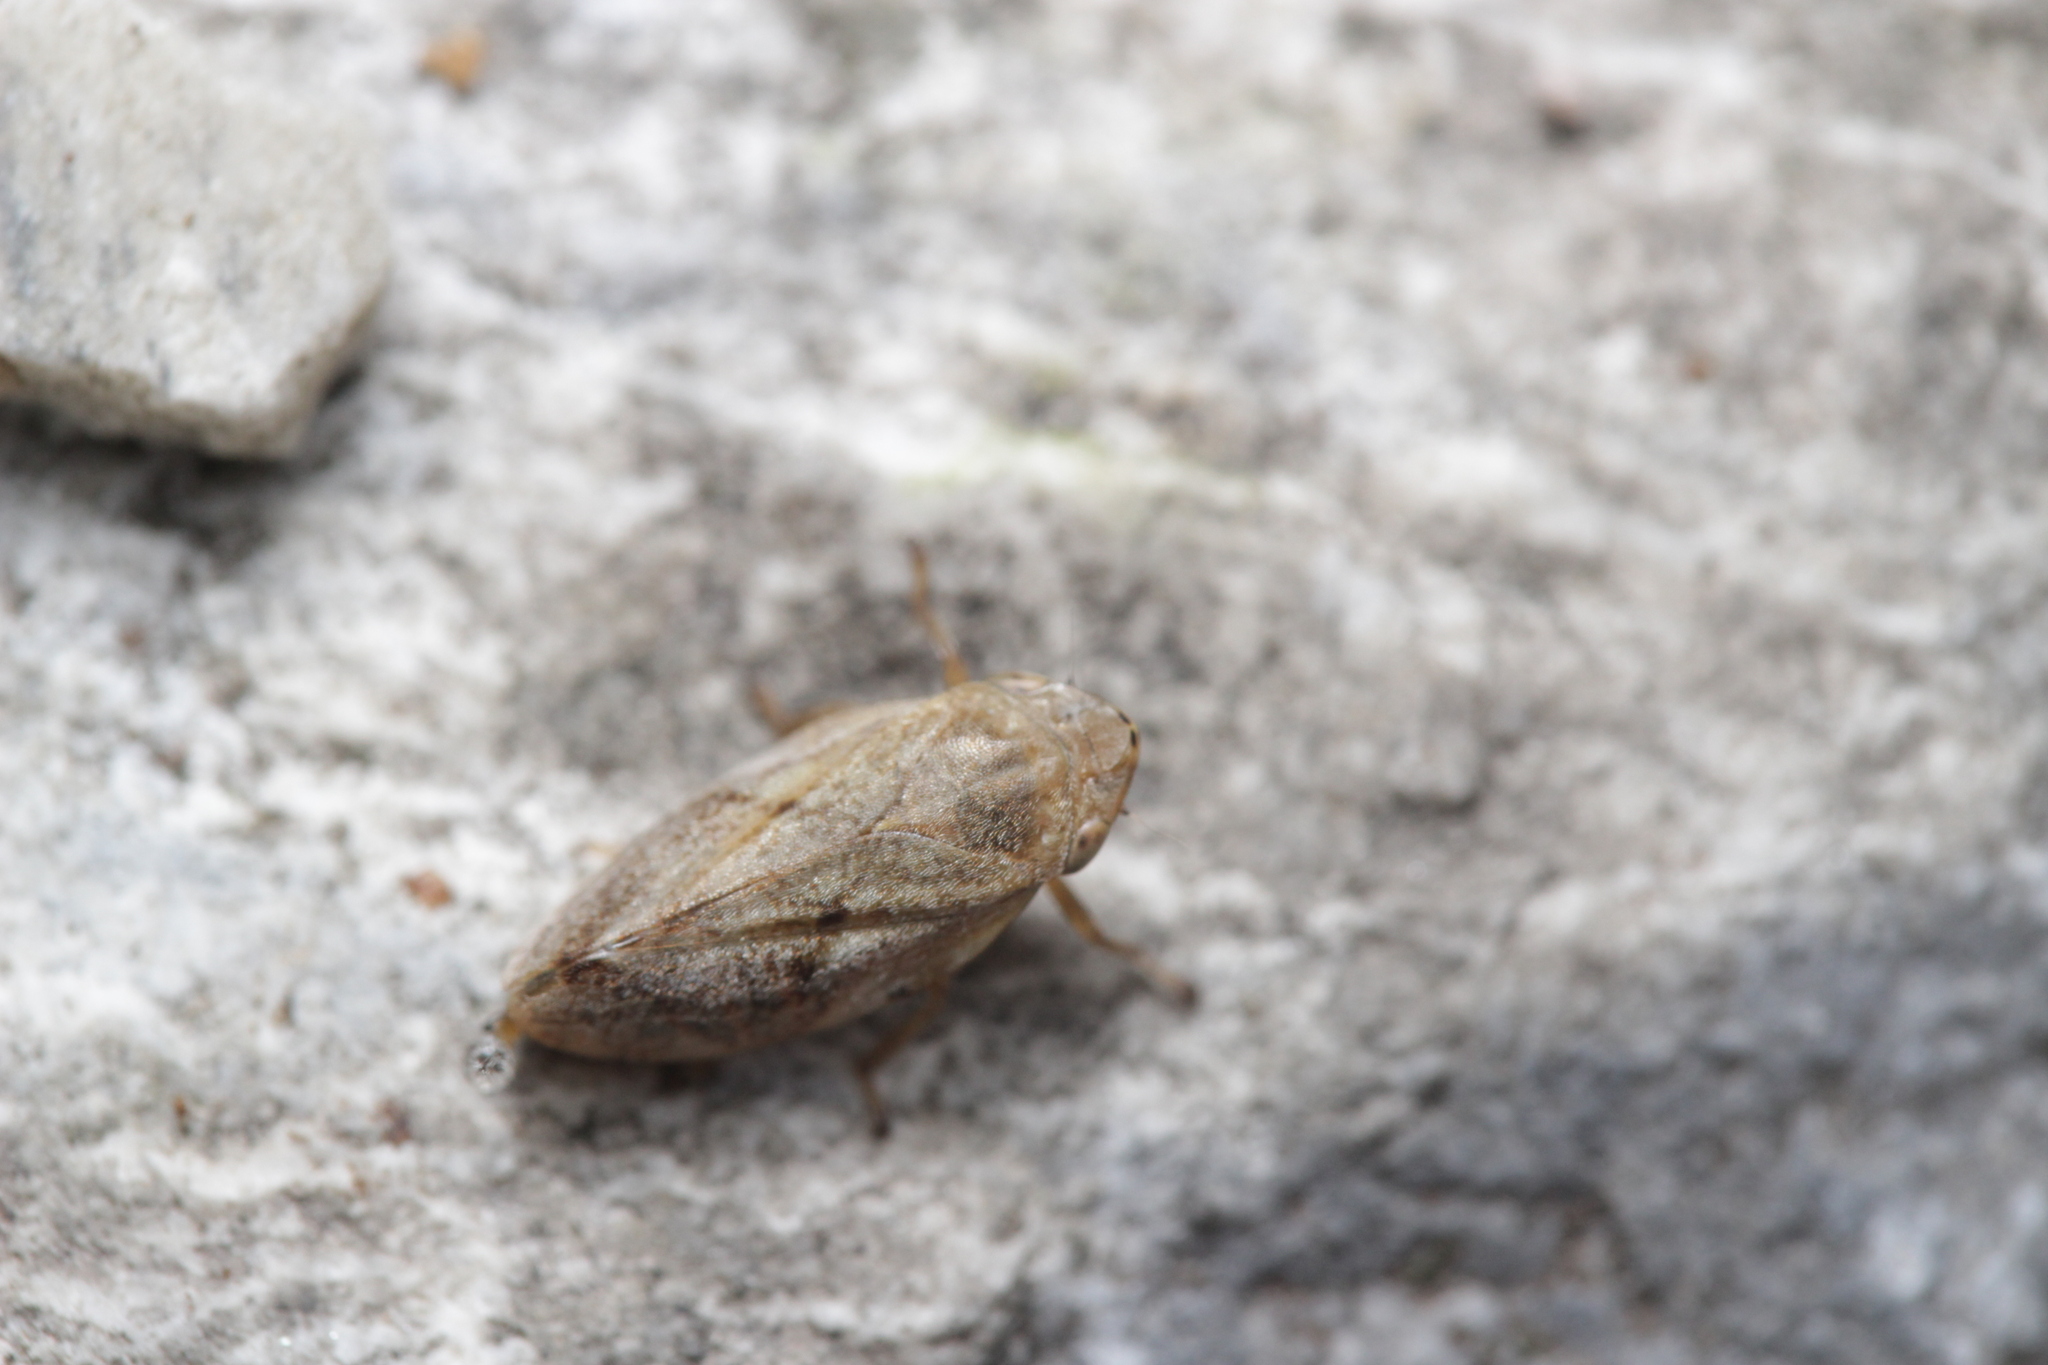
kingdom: Animalia
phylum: Arthropoda
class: Insecta
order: Hemiptera
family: Aphrophoridae
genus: Philaenus
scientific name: Philaenus spumarius
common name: Meadow spittlebug
